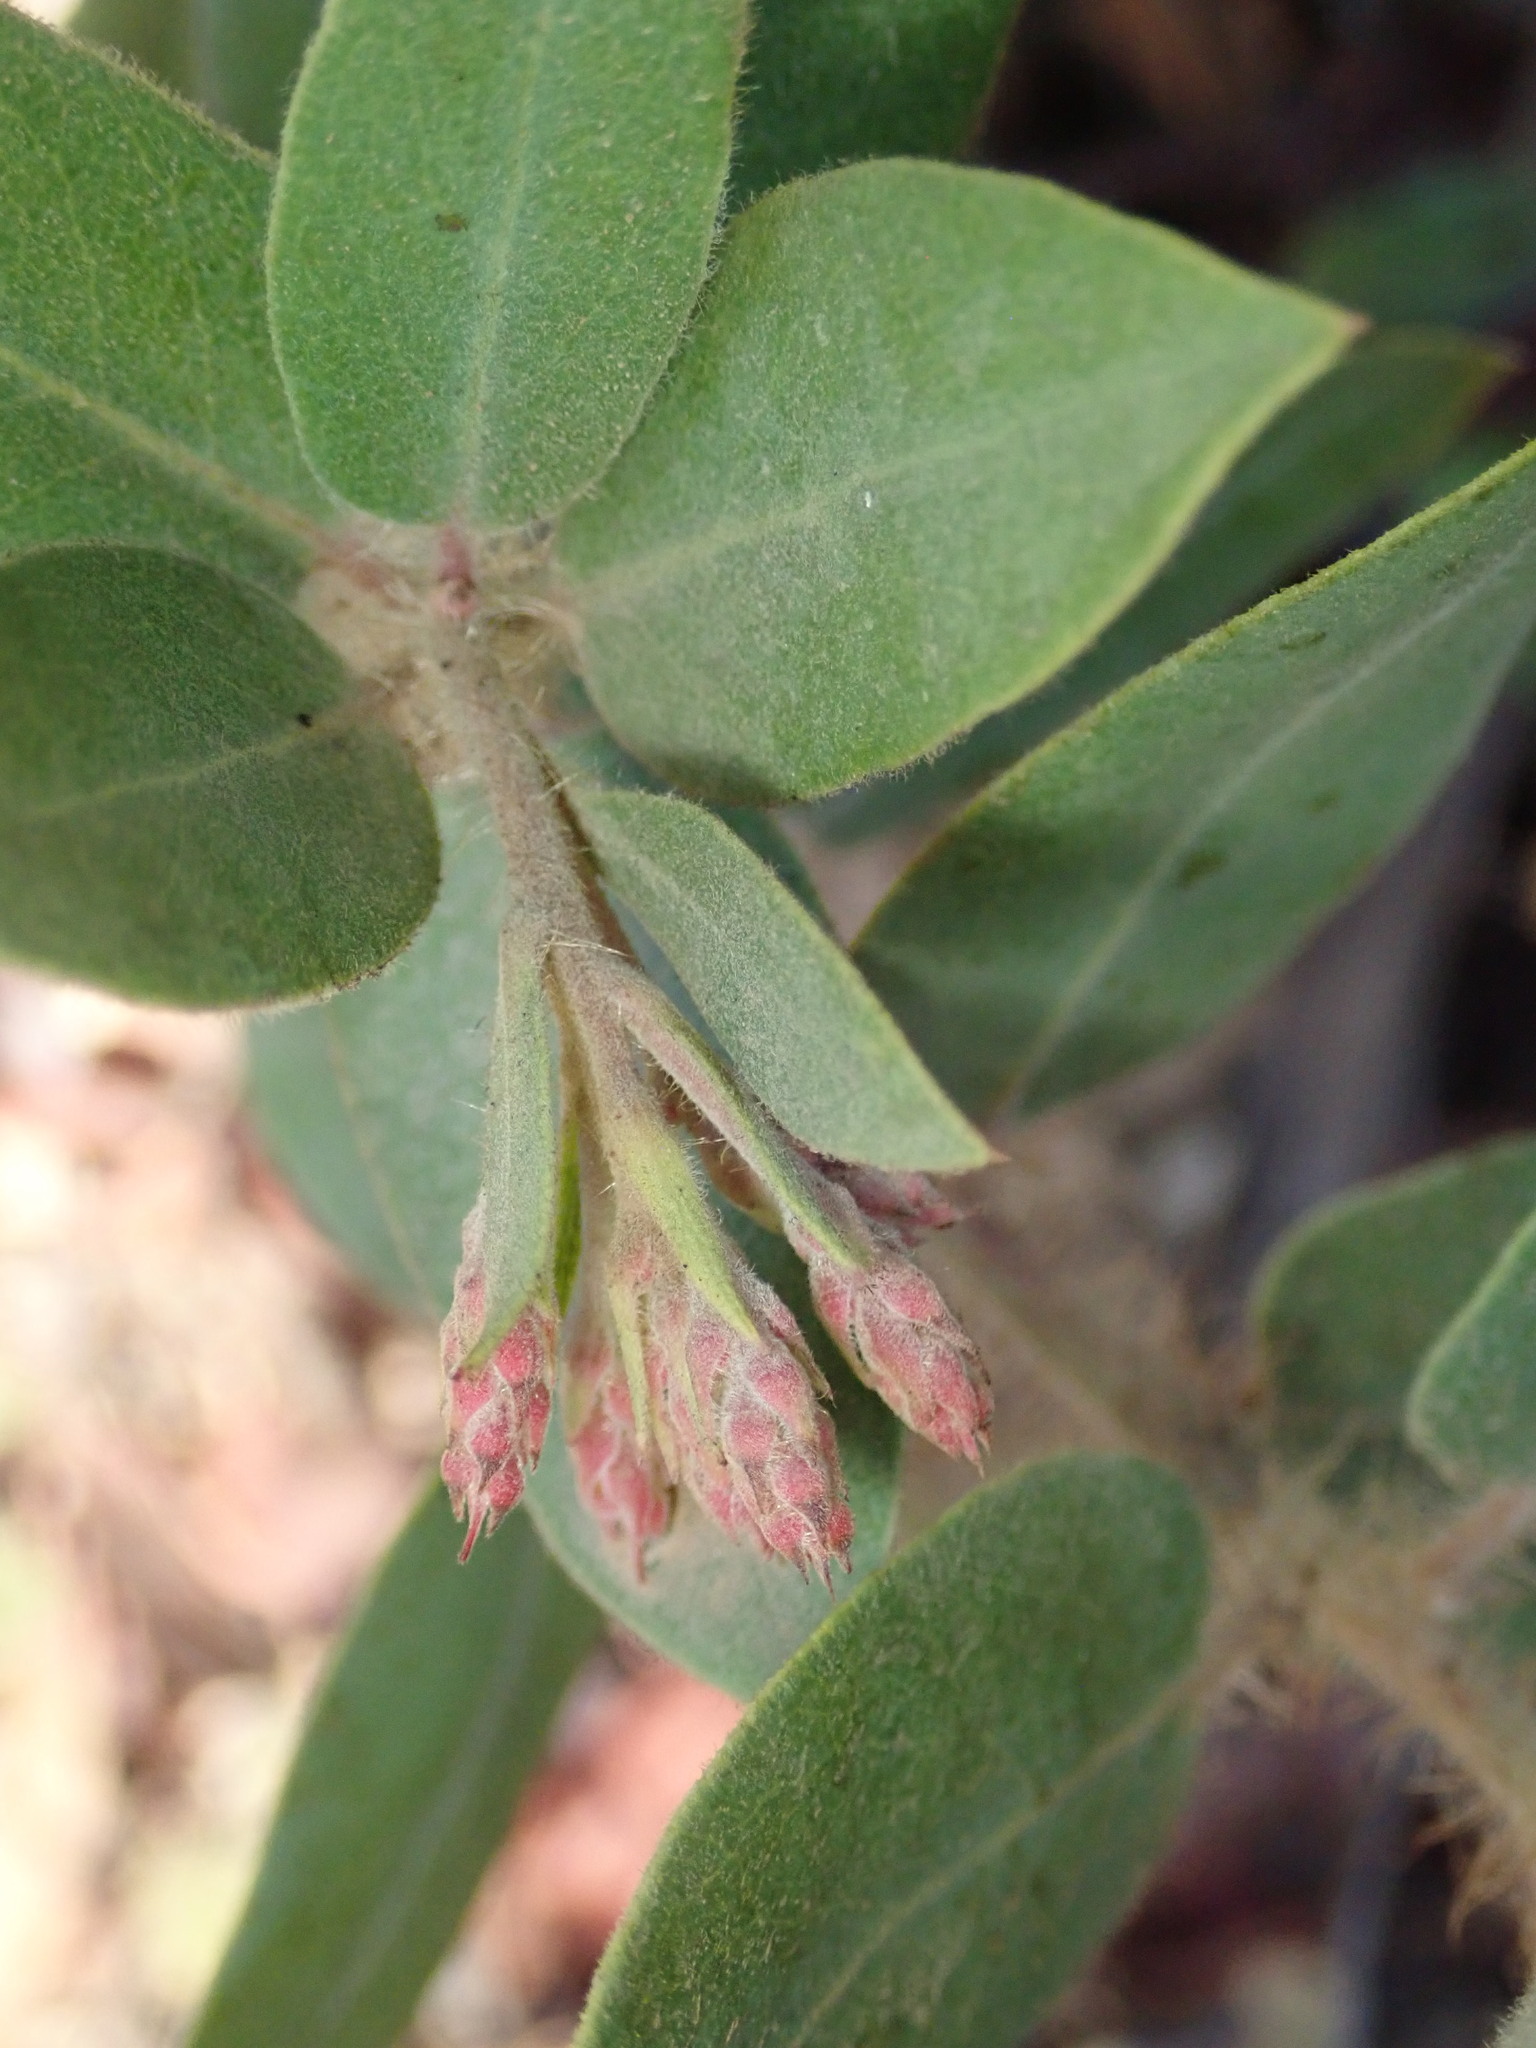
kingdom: Plantae
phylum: Tracheophyta
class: Magnoliopsida
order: Ericales
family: Ericaceae
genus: Arctostaphylos
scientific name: Arctostaphylos crustacea
